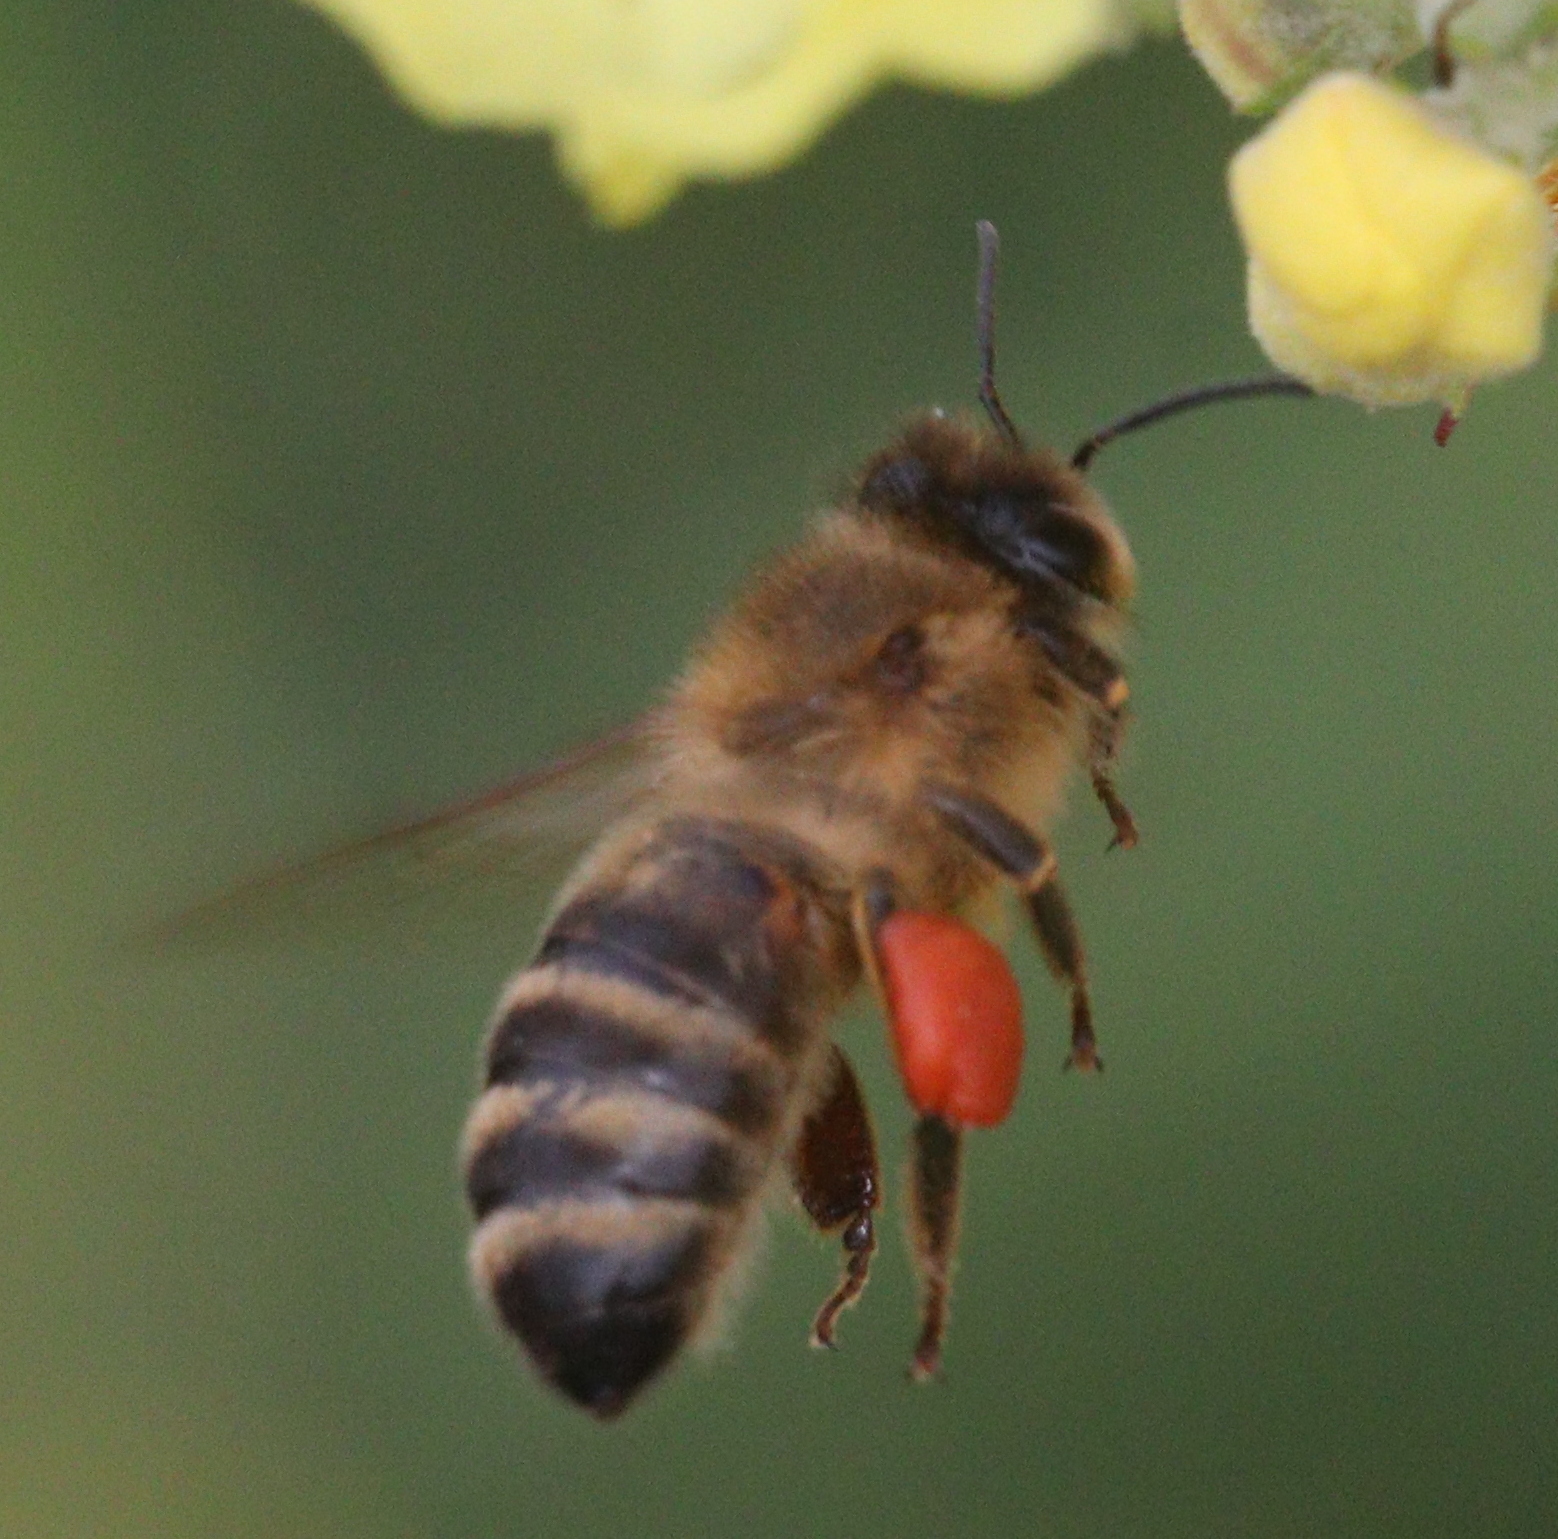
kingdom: Animalia
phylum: Arthropoda
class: Insecta
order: Hymenoptera
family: Apidae
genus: Apis
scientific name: Apis mellifera
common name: Honey bee
